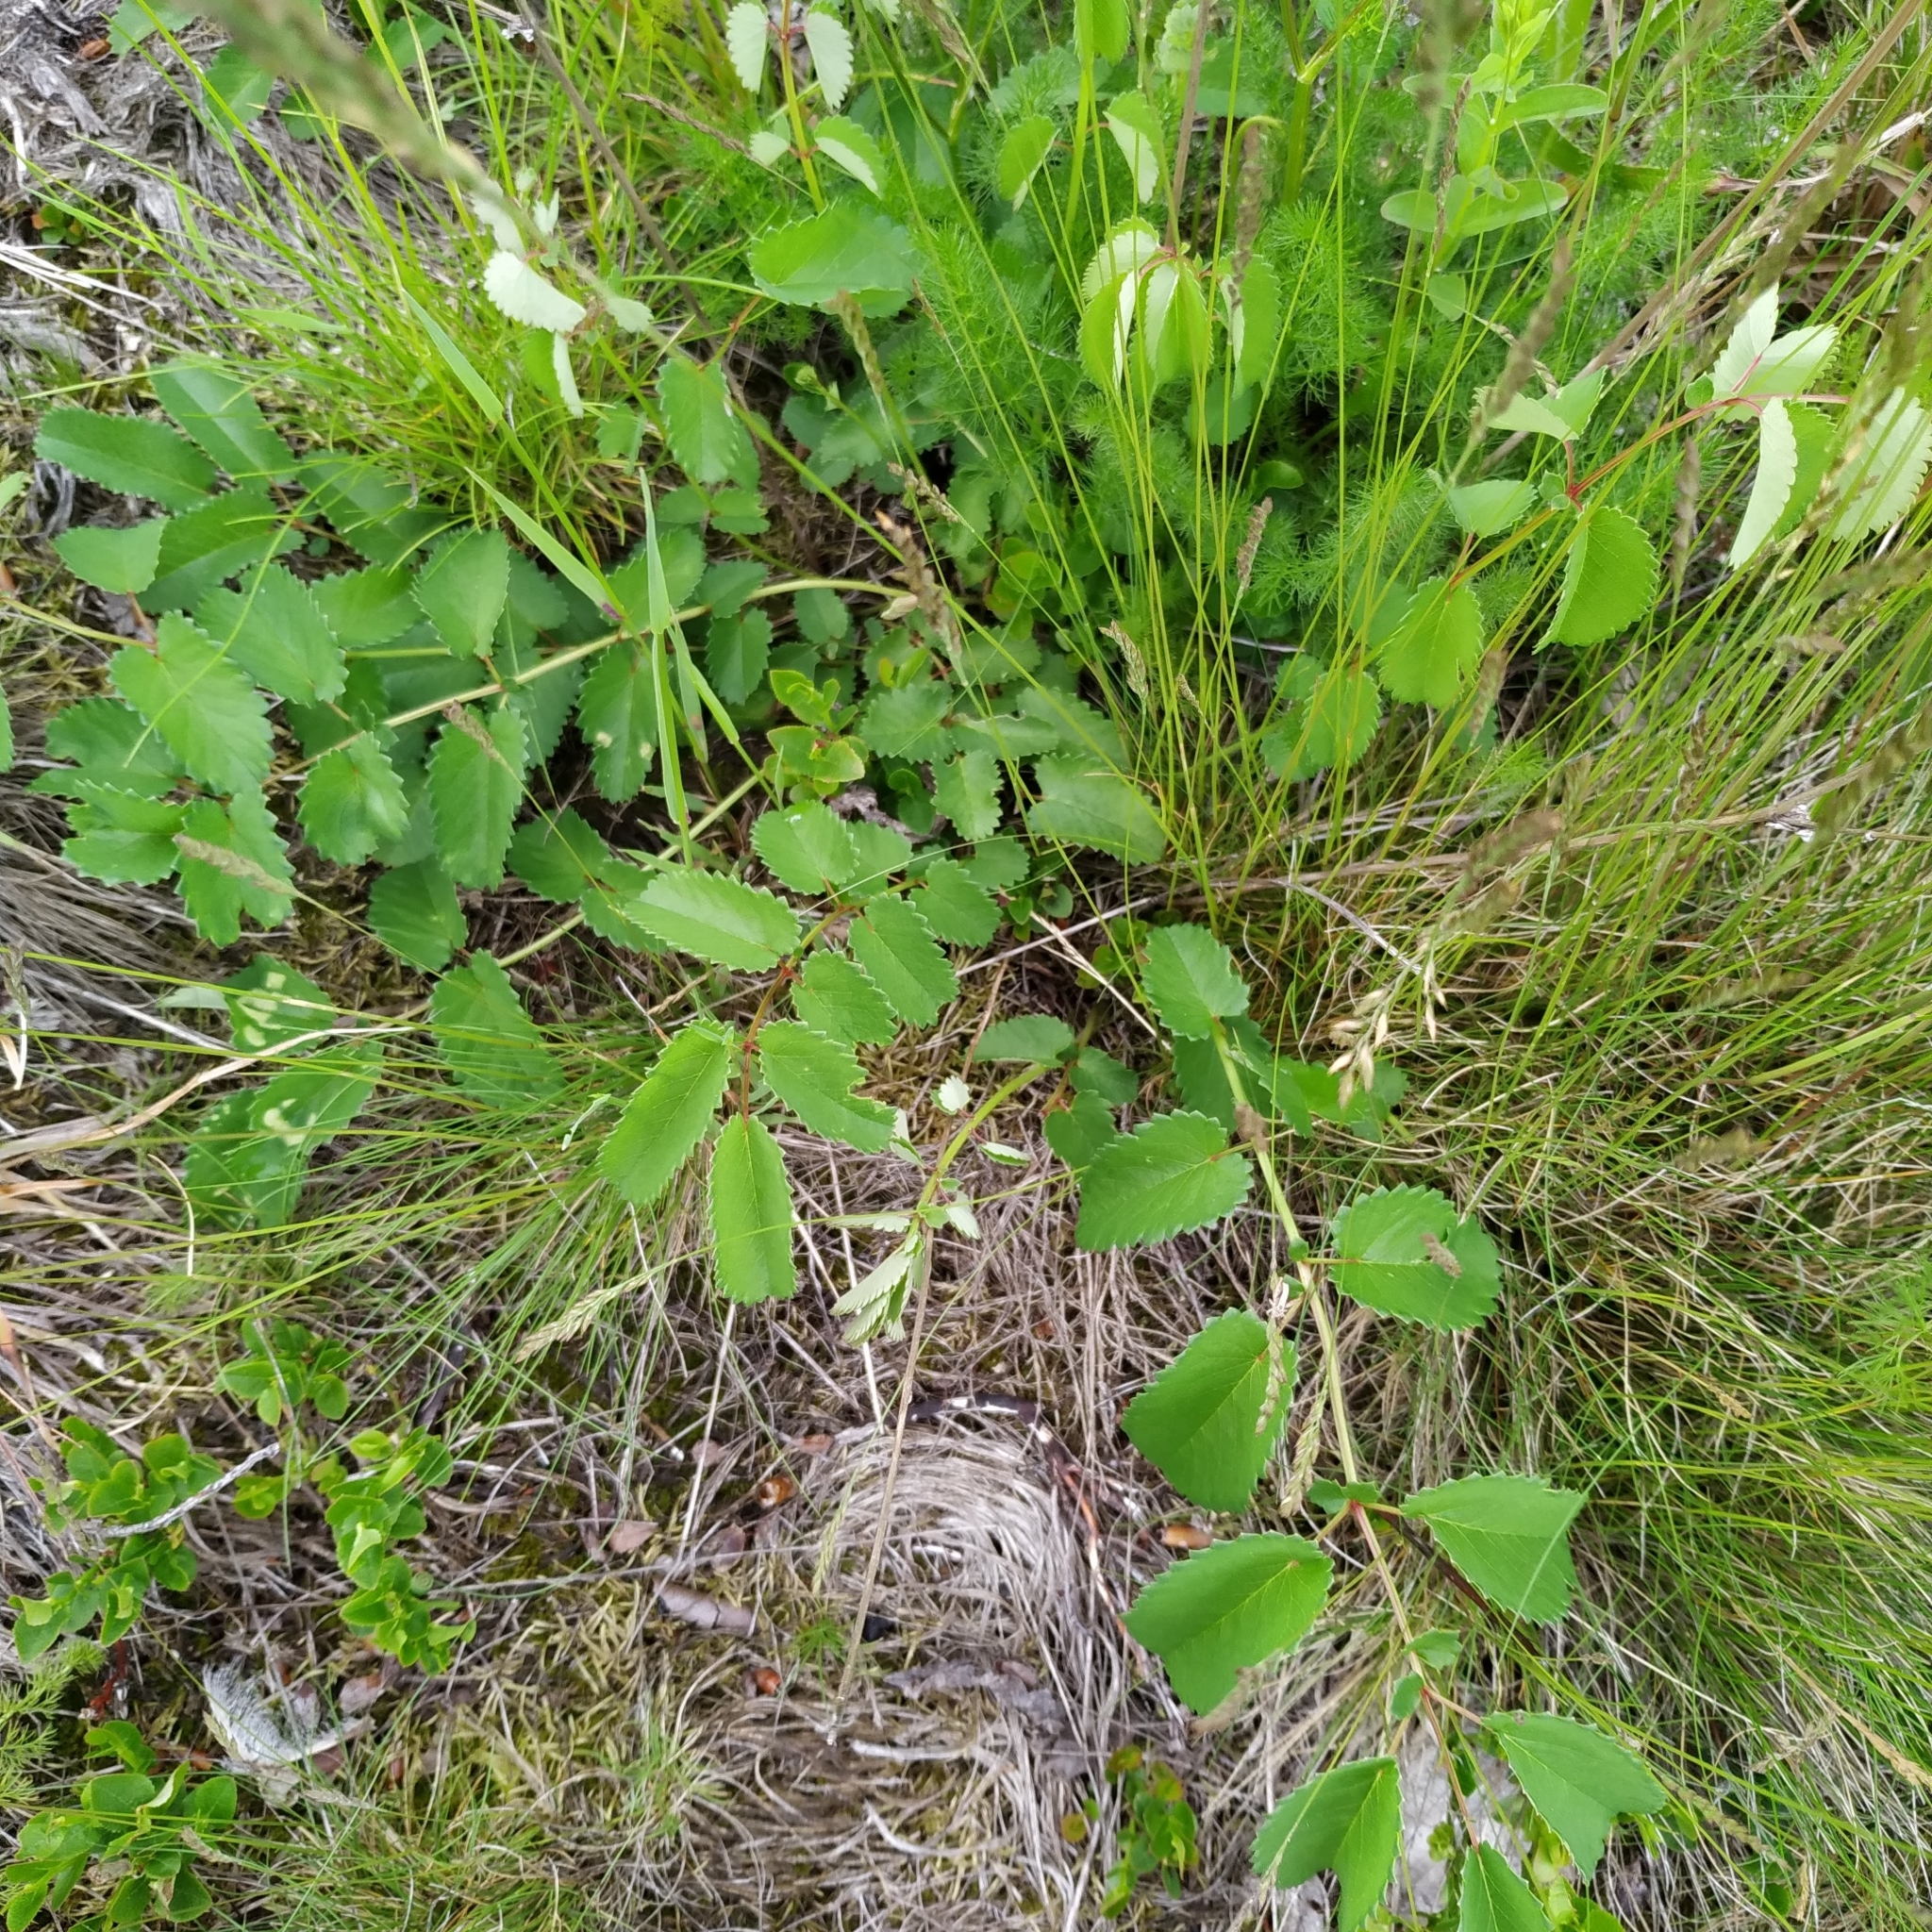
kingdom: Plantae
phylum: Tracheophyta
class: Magnoliopsida
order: Rosales
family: Rosaceae
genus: Sanguisorba
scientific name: Sanguisorba officinalis
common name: Great burnet
